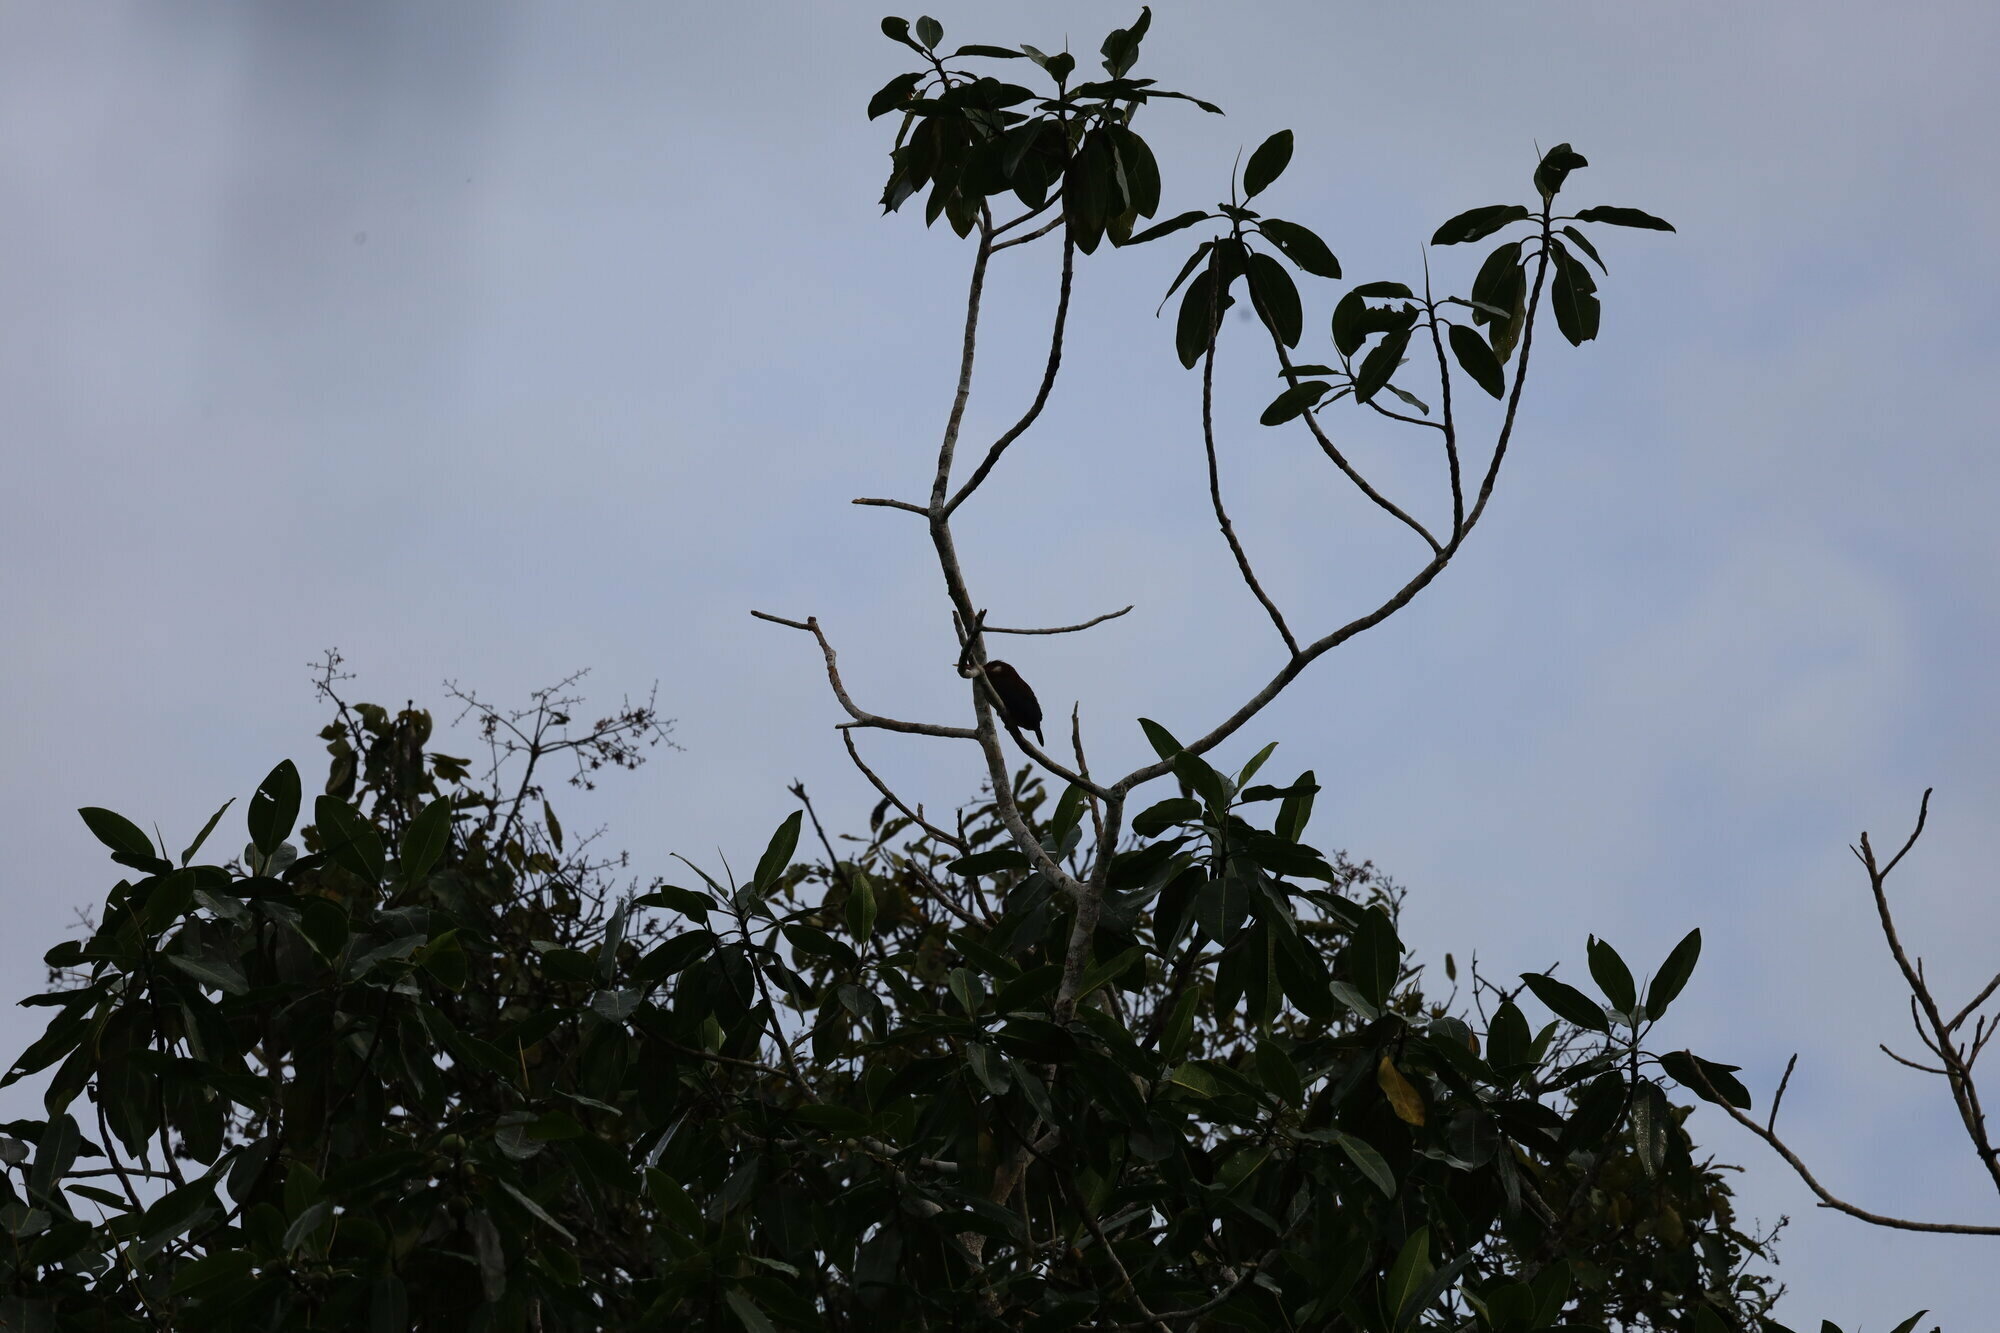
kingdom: Animalia
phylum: Chordata
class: Aves
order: Piciformes
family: Galbulidae
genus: Galbalcyrhynchus
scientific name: Galbalcyrhynchus leucotis
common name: White-eared jacamar
